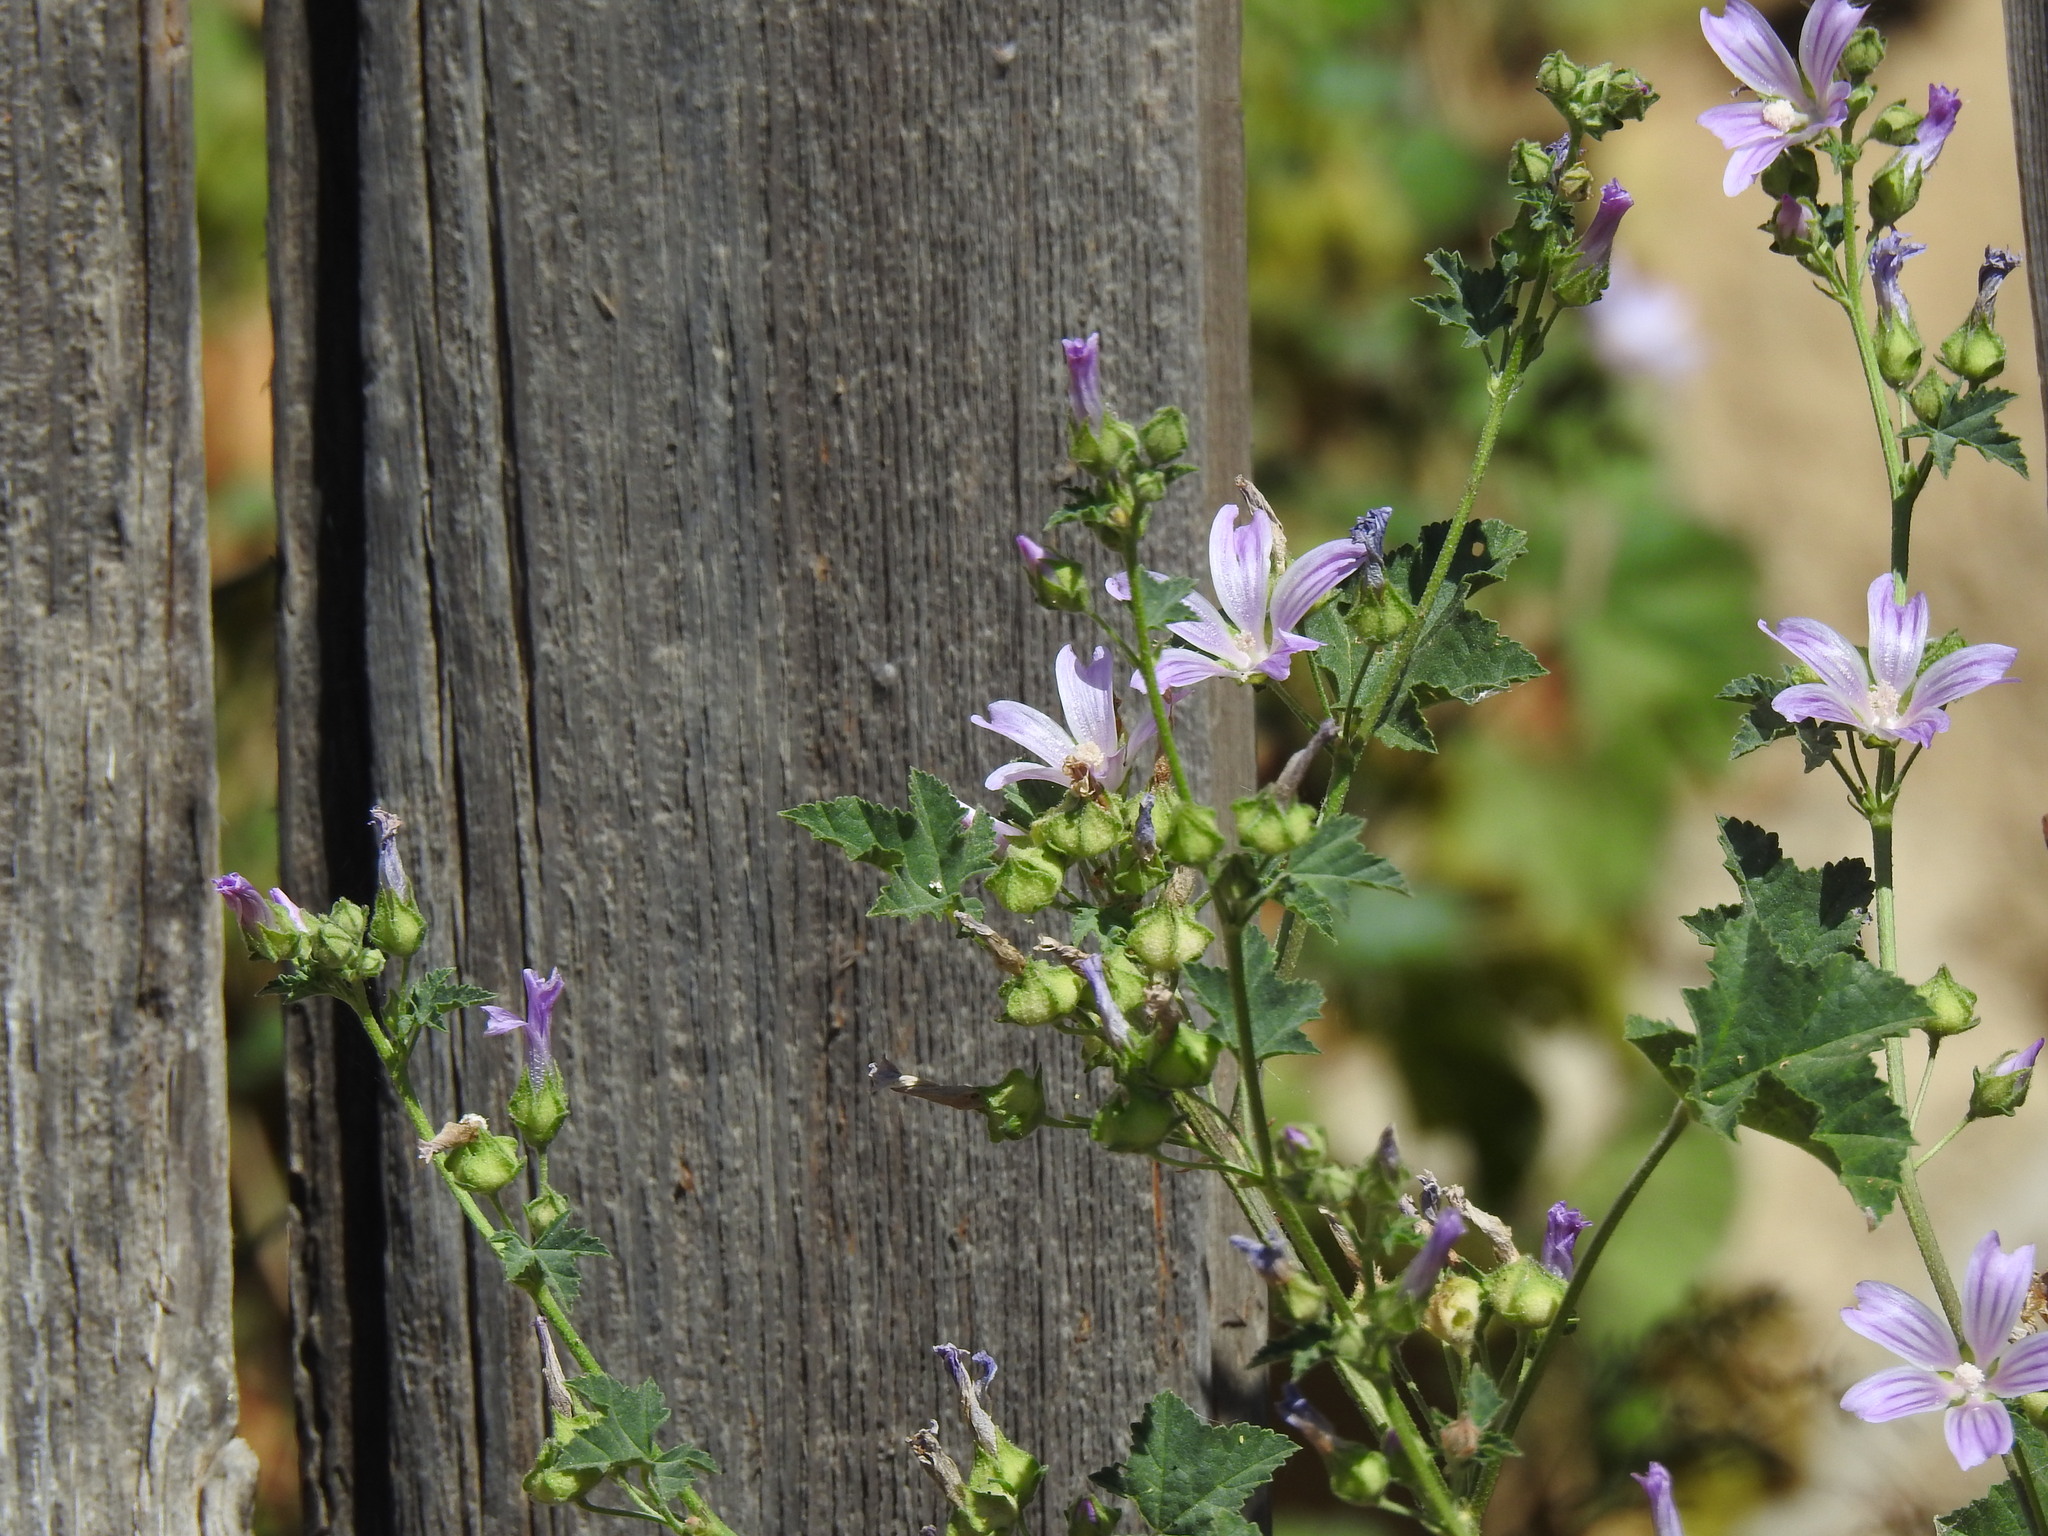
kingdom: Plantae
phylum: Tracheophyta
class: Magnoliopsida
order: Malvales
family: Malvaceae
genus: Malva
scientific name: Malva multiflora
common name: Cheeseweed
